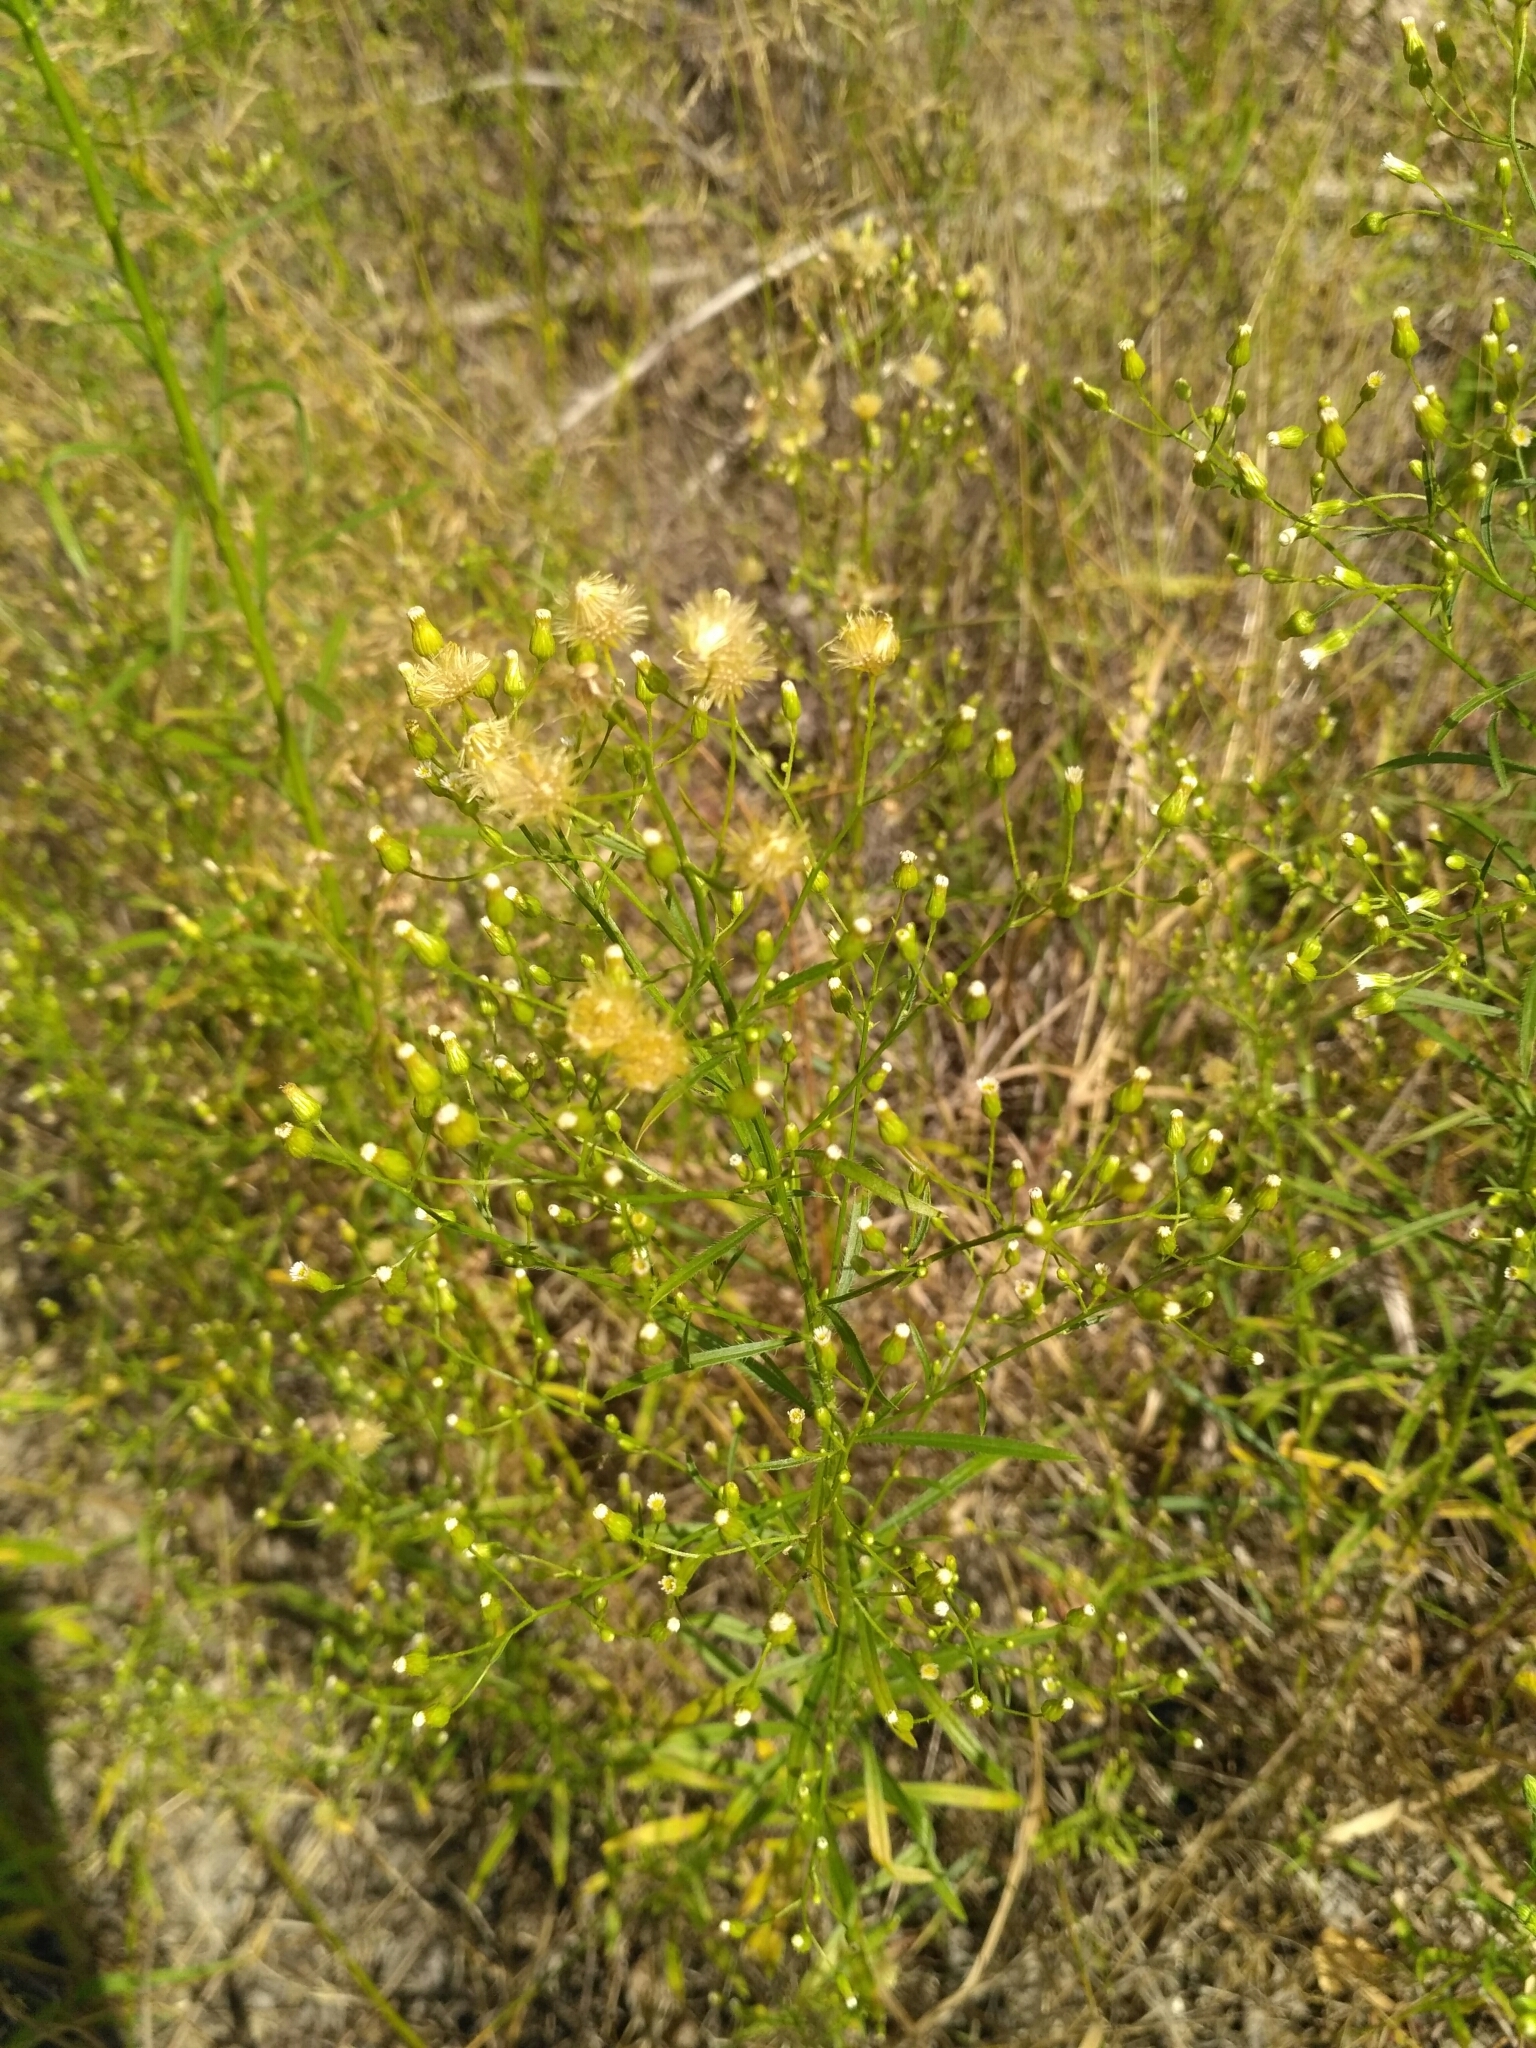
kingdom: Plantae
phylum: Tracheophyta
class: Magnoliopsida
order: Asterales
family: Asteraceae
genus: Erigeron
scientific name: Erigeron canadensis
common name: Canadian fleabane
